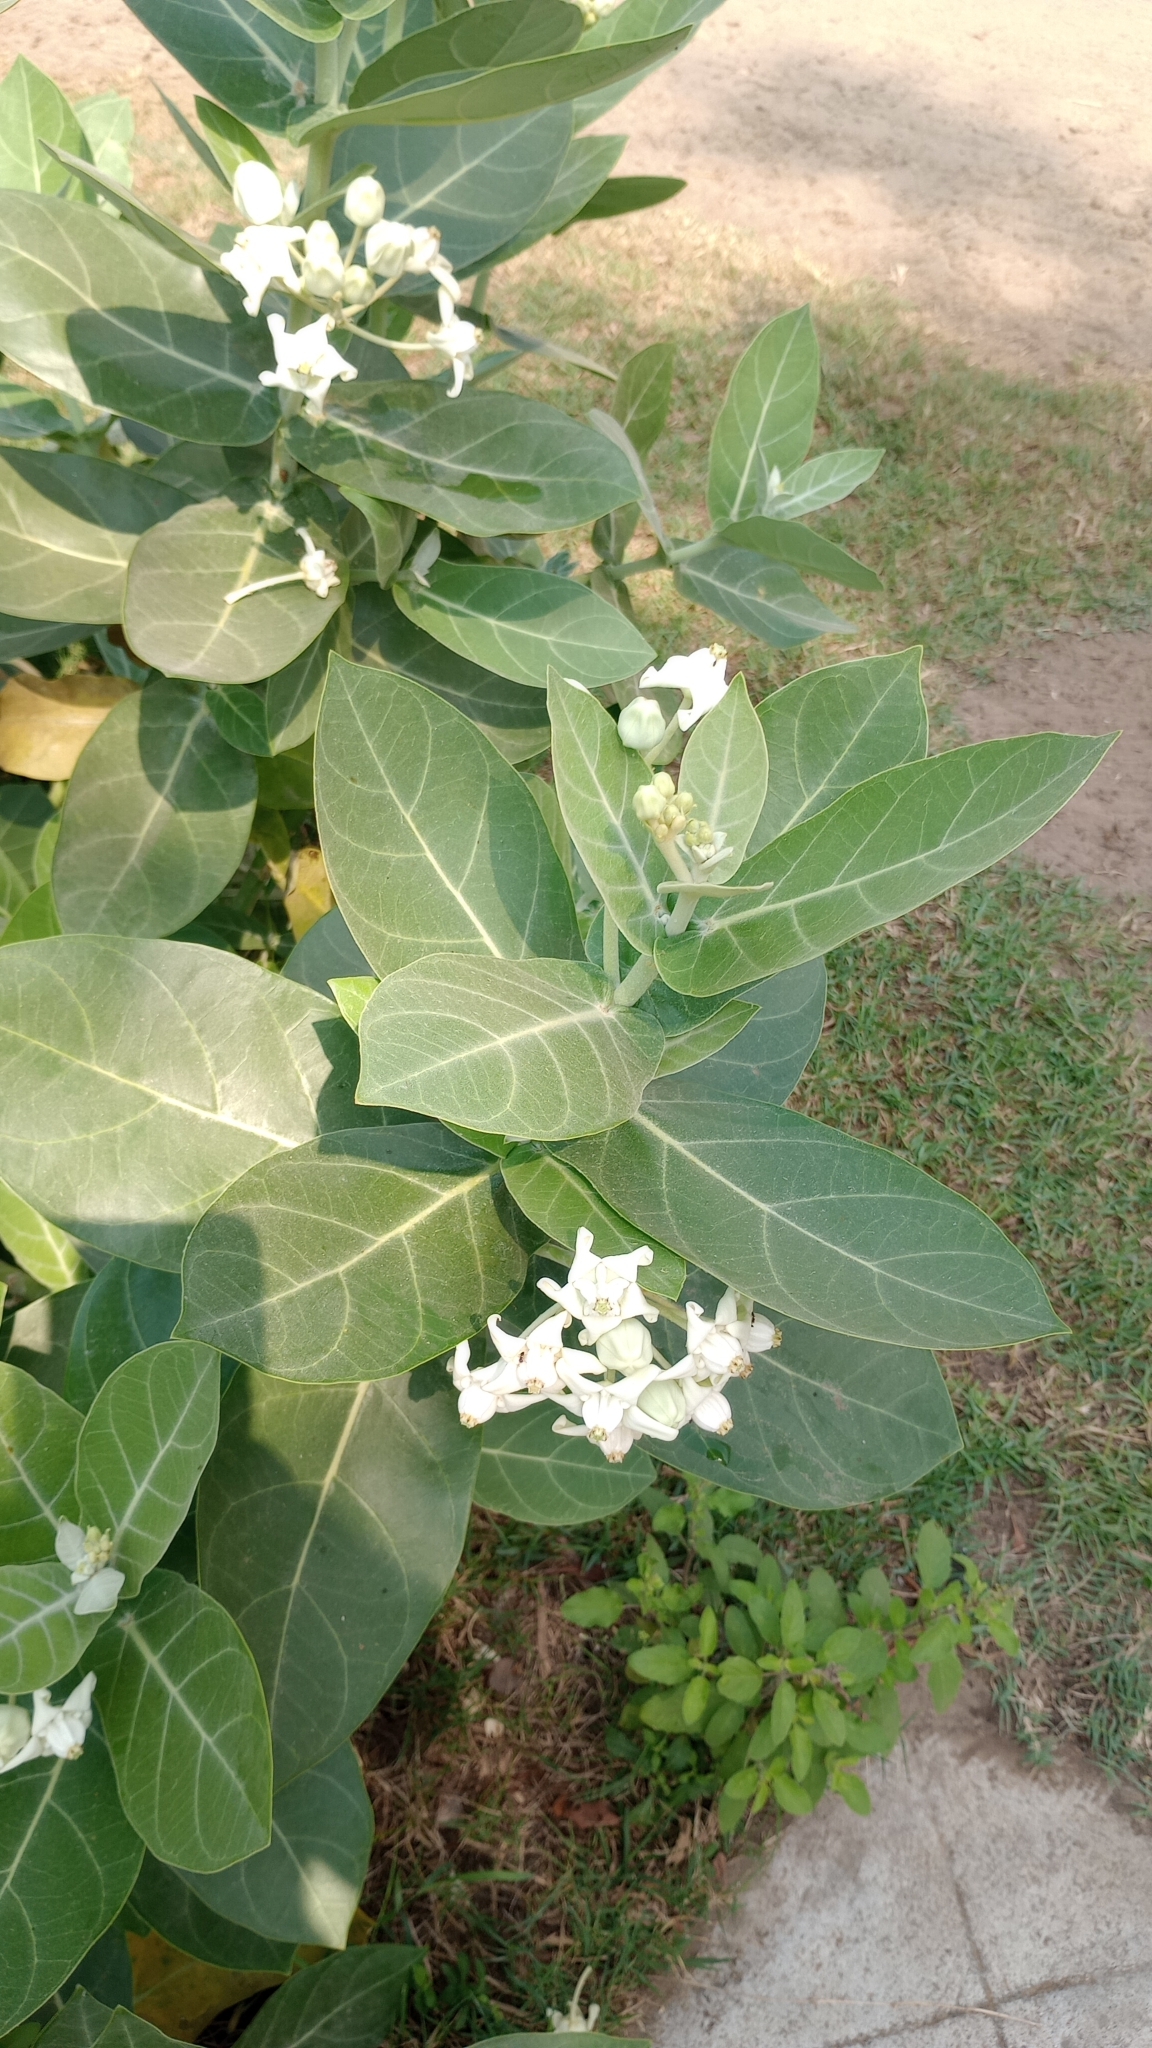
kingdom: Plantae
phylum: Tracheophyta
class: Magnoliopsida
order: Gentianales
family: Apocynaceae
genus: Calotropis
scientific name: Calotropis gigantea
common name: Crown flower
